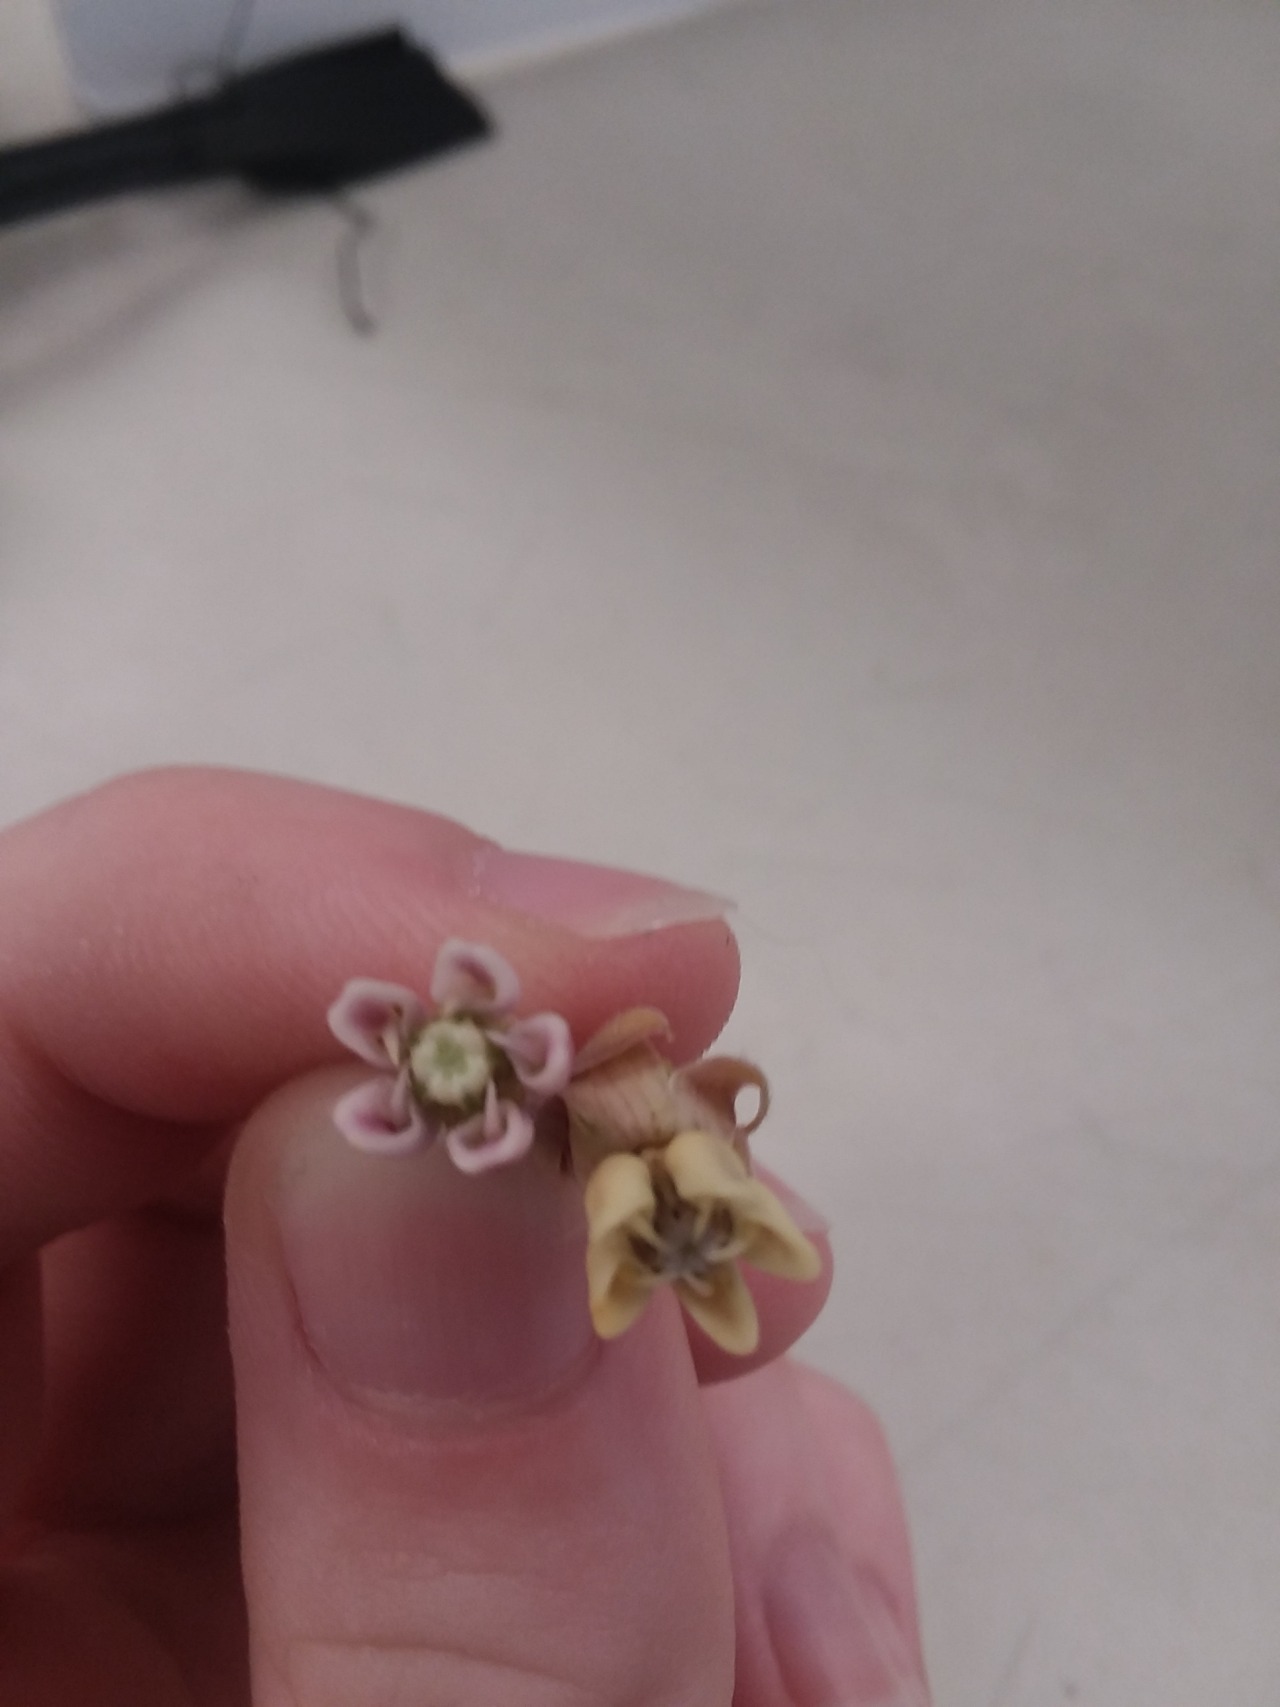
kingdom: Plantae
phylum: Tracheophyta
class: Magnoliopsida
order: Gentianales
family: Apocynaceae
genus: Asclepias
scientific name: Asclepias syriaca
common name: Common milkweed
